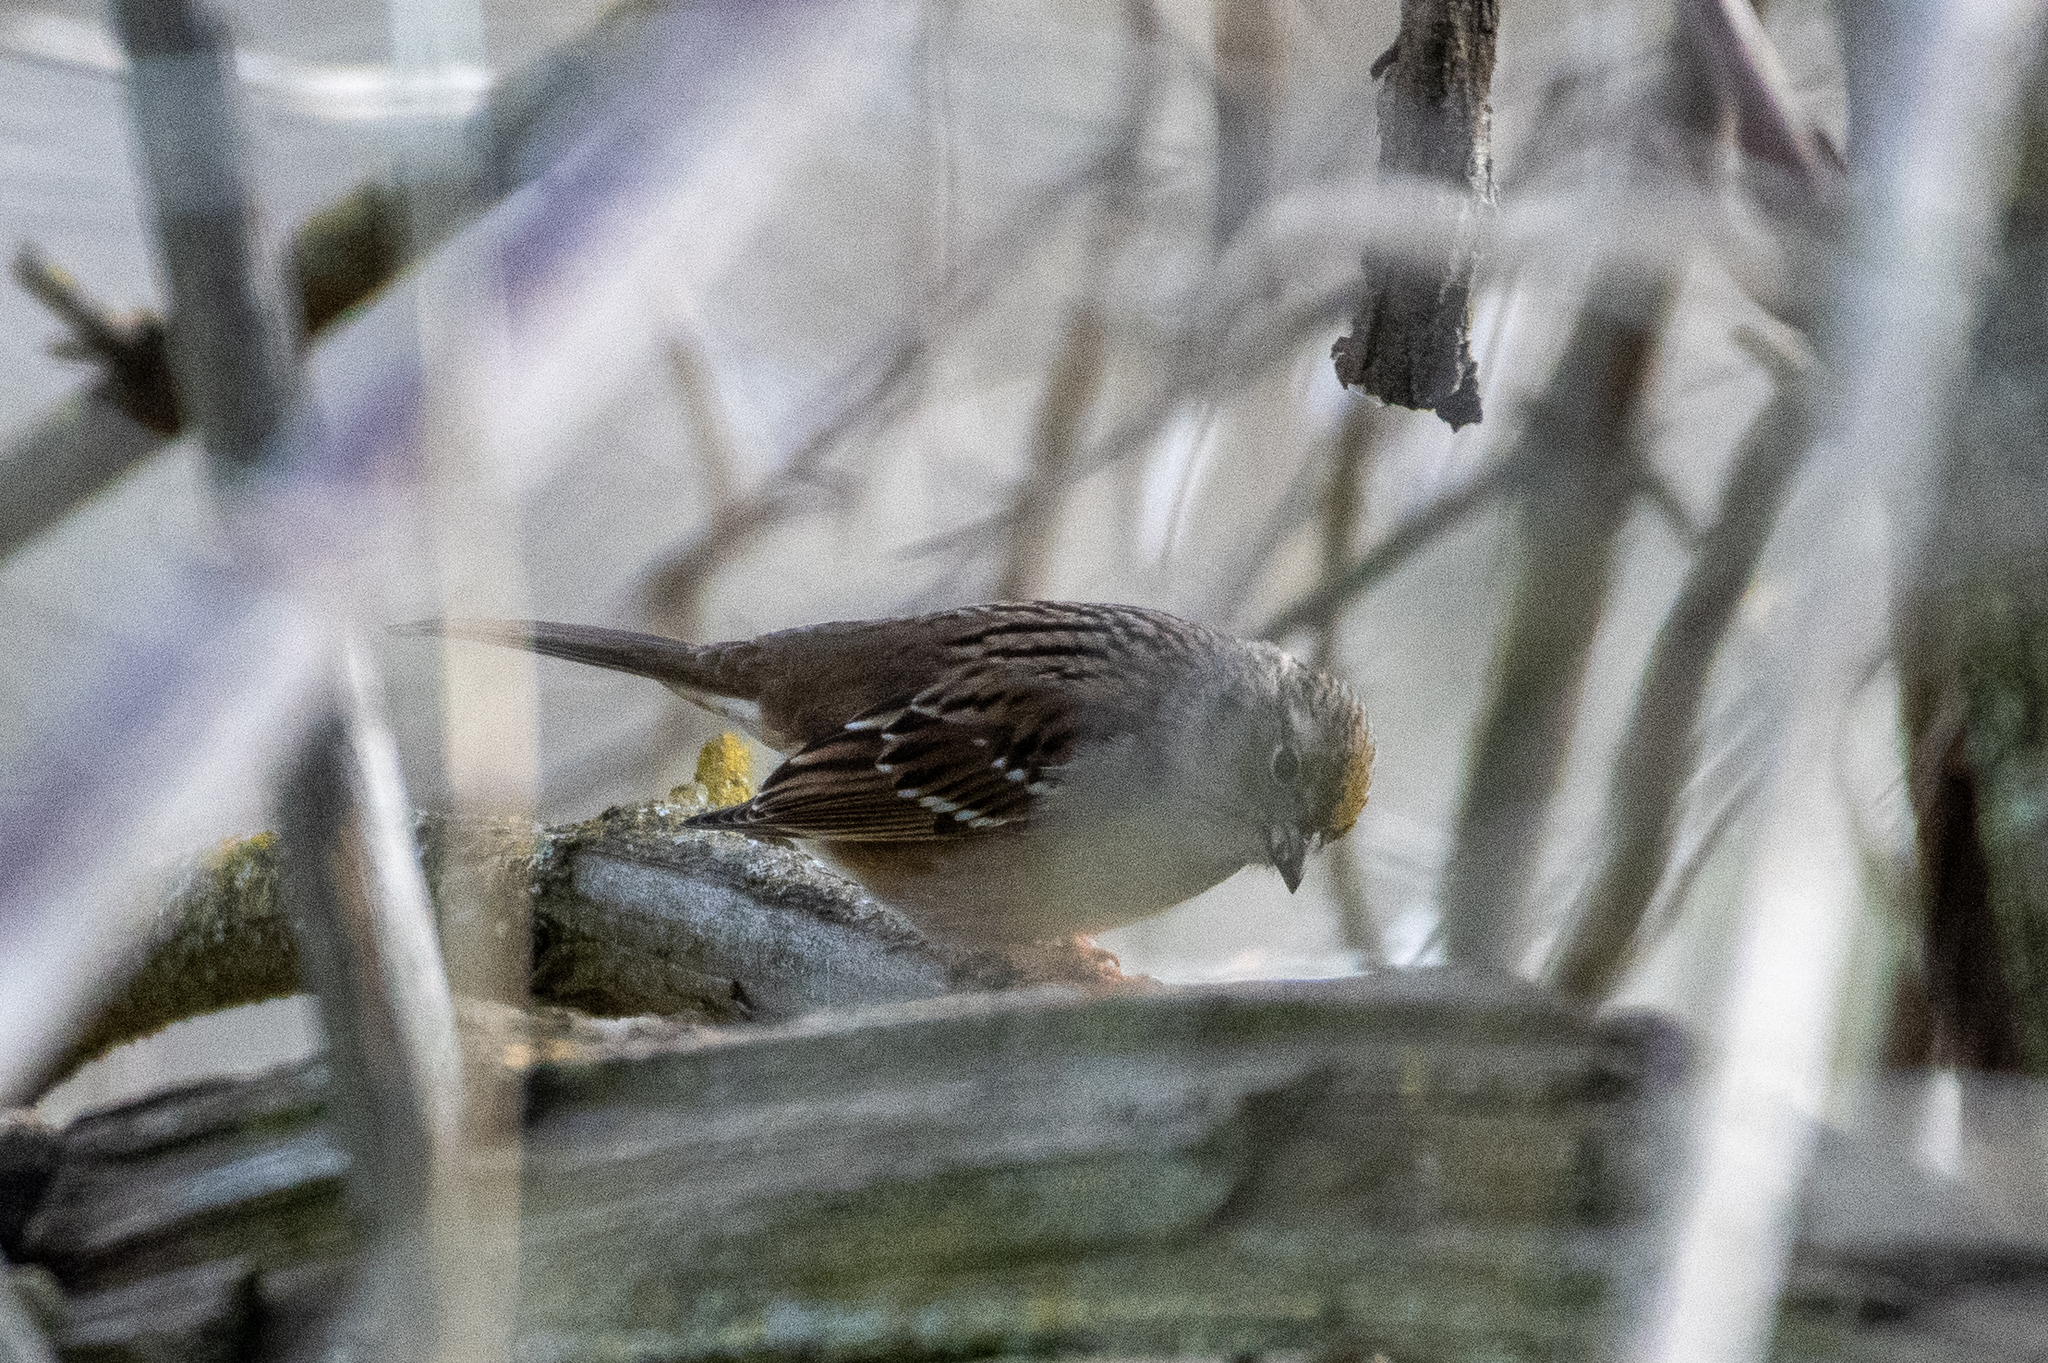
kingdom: Animalia
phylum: Chordata
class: Aves
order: Passeriformes
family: Passerellidae
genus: Zonotrichia
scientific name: Zonotrichia atricapilla
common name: Golden-crowned sparrow
